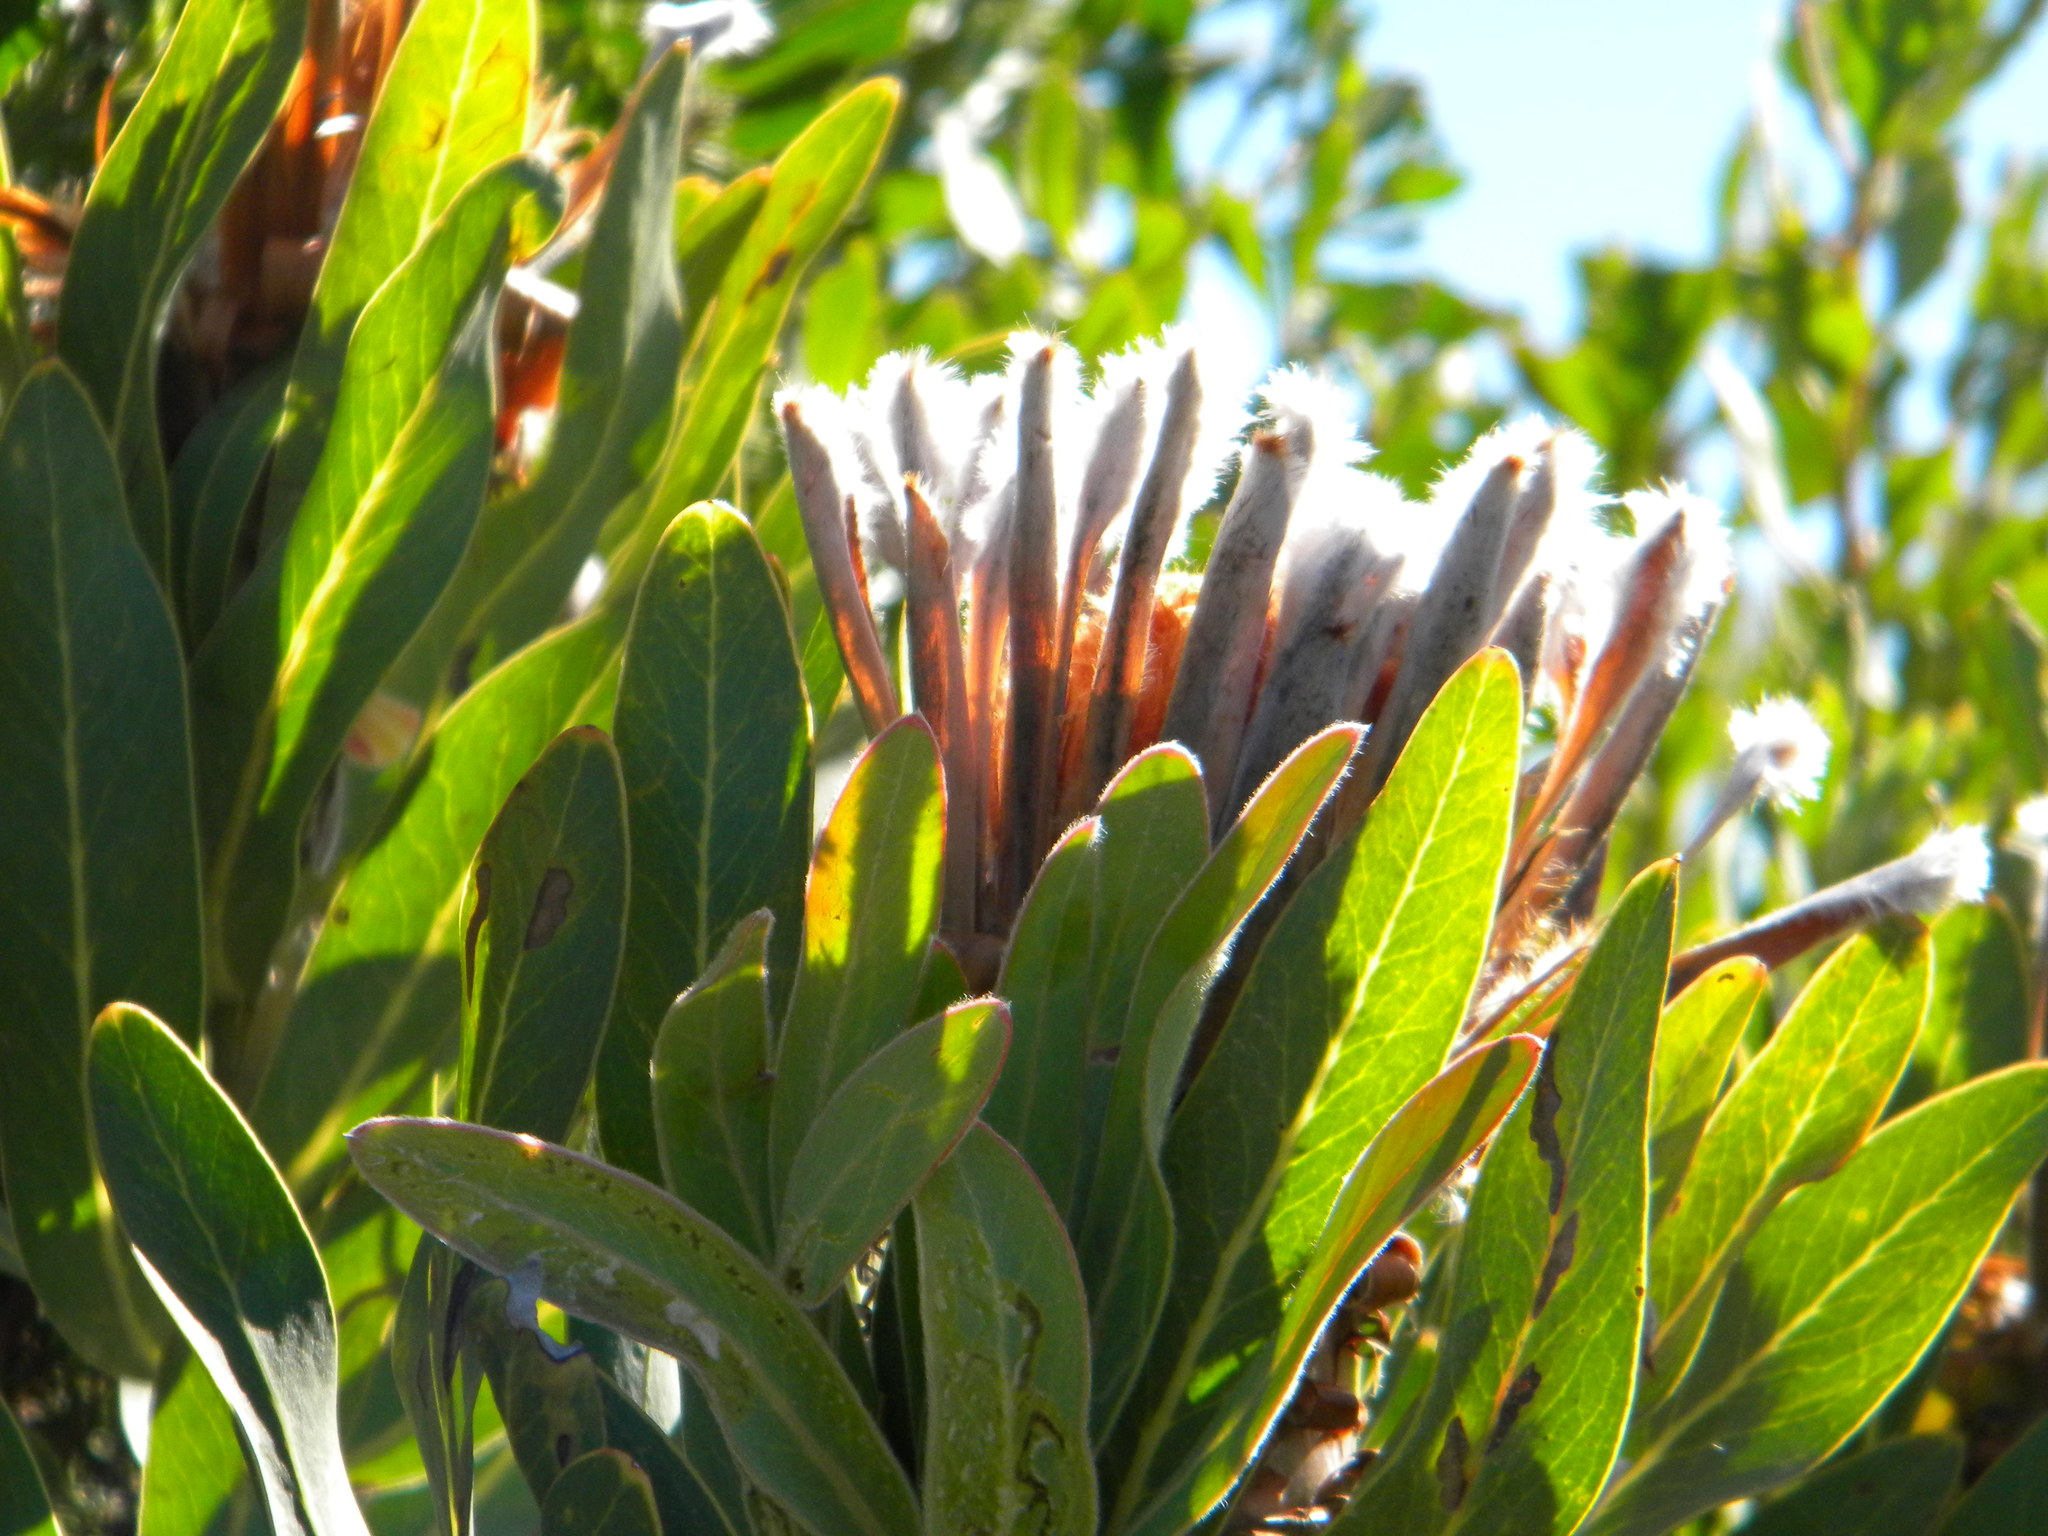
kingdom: Plantae
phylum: Tracheophyta
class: Magnoliopsida
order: Proteales
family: Proteaceae
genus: Protea
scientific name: Protea neriifolia
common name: Blue sugarbush
